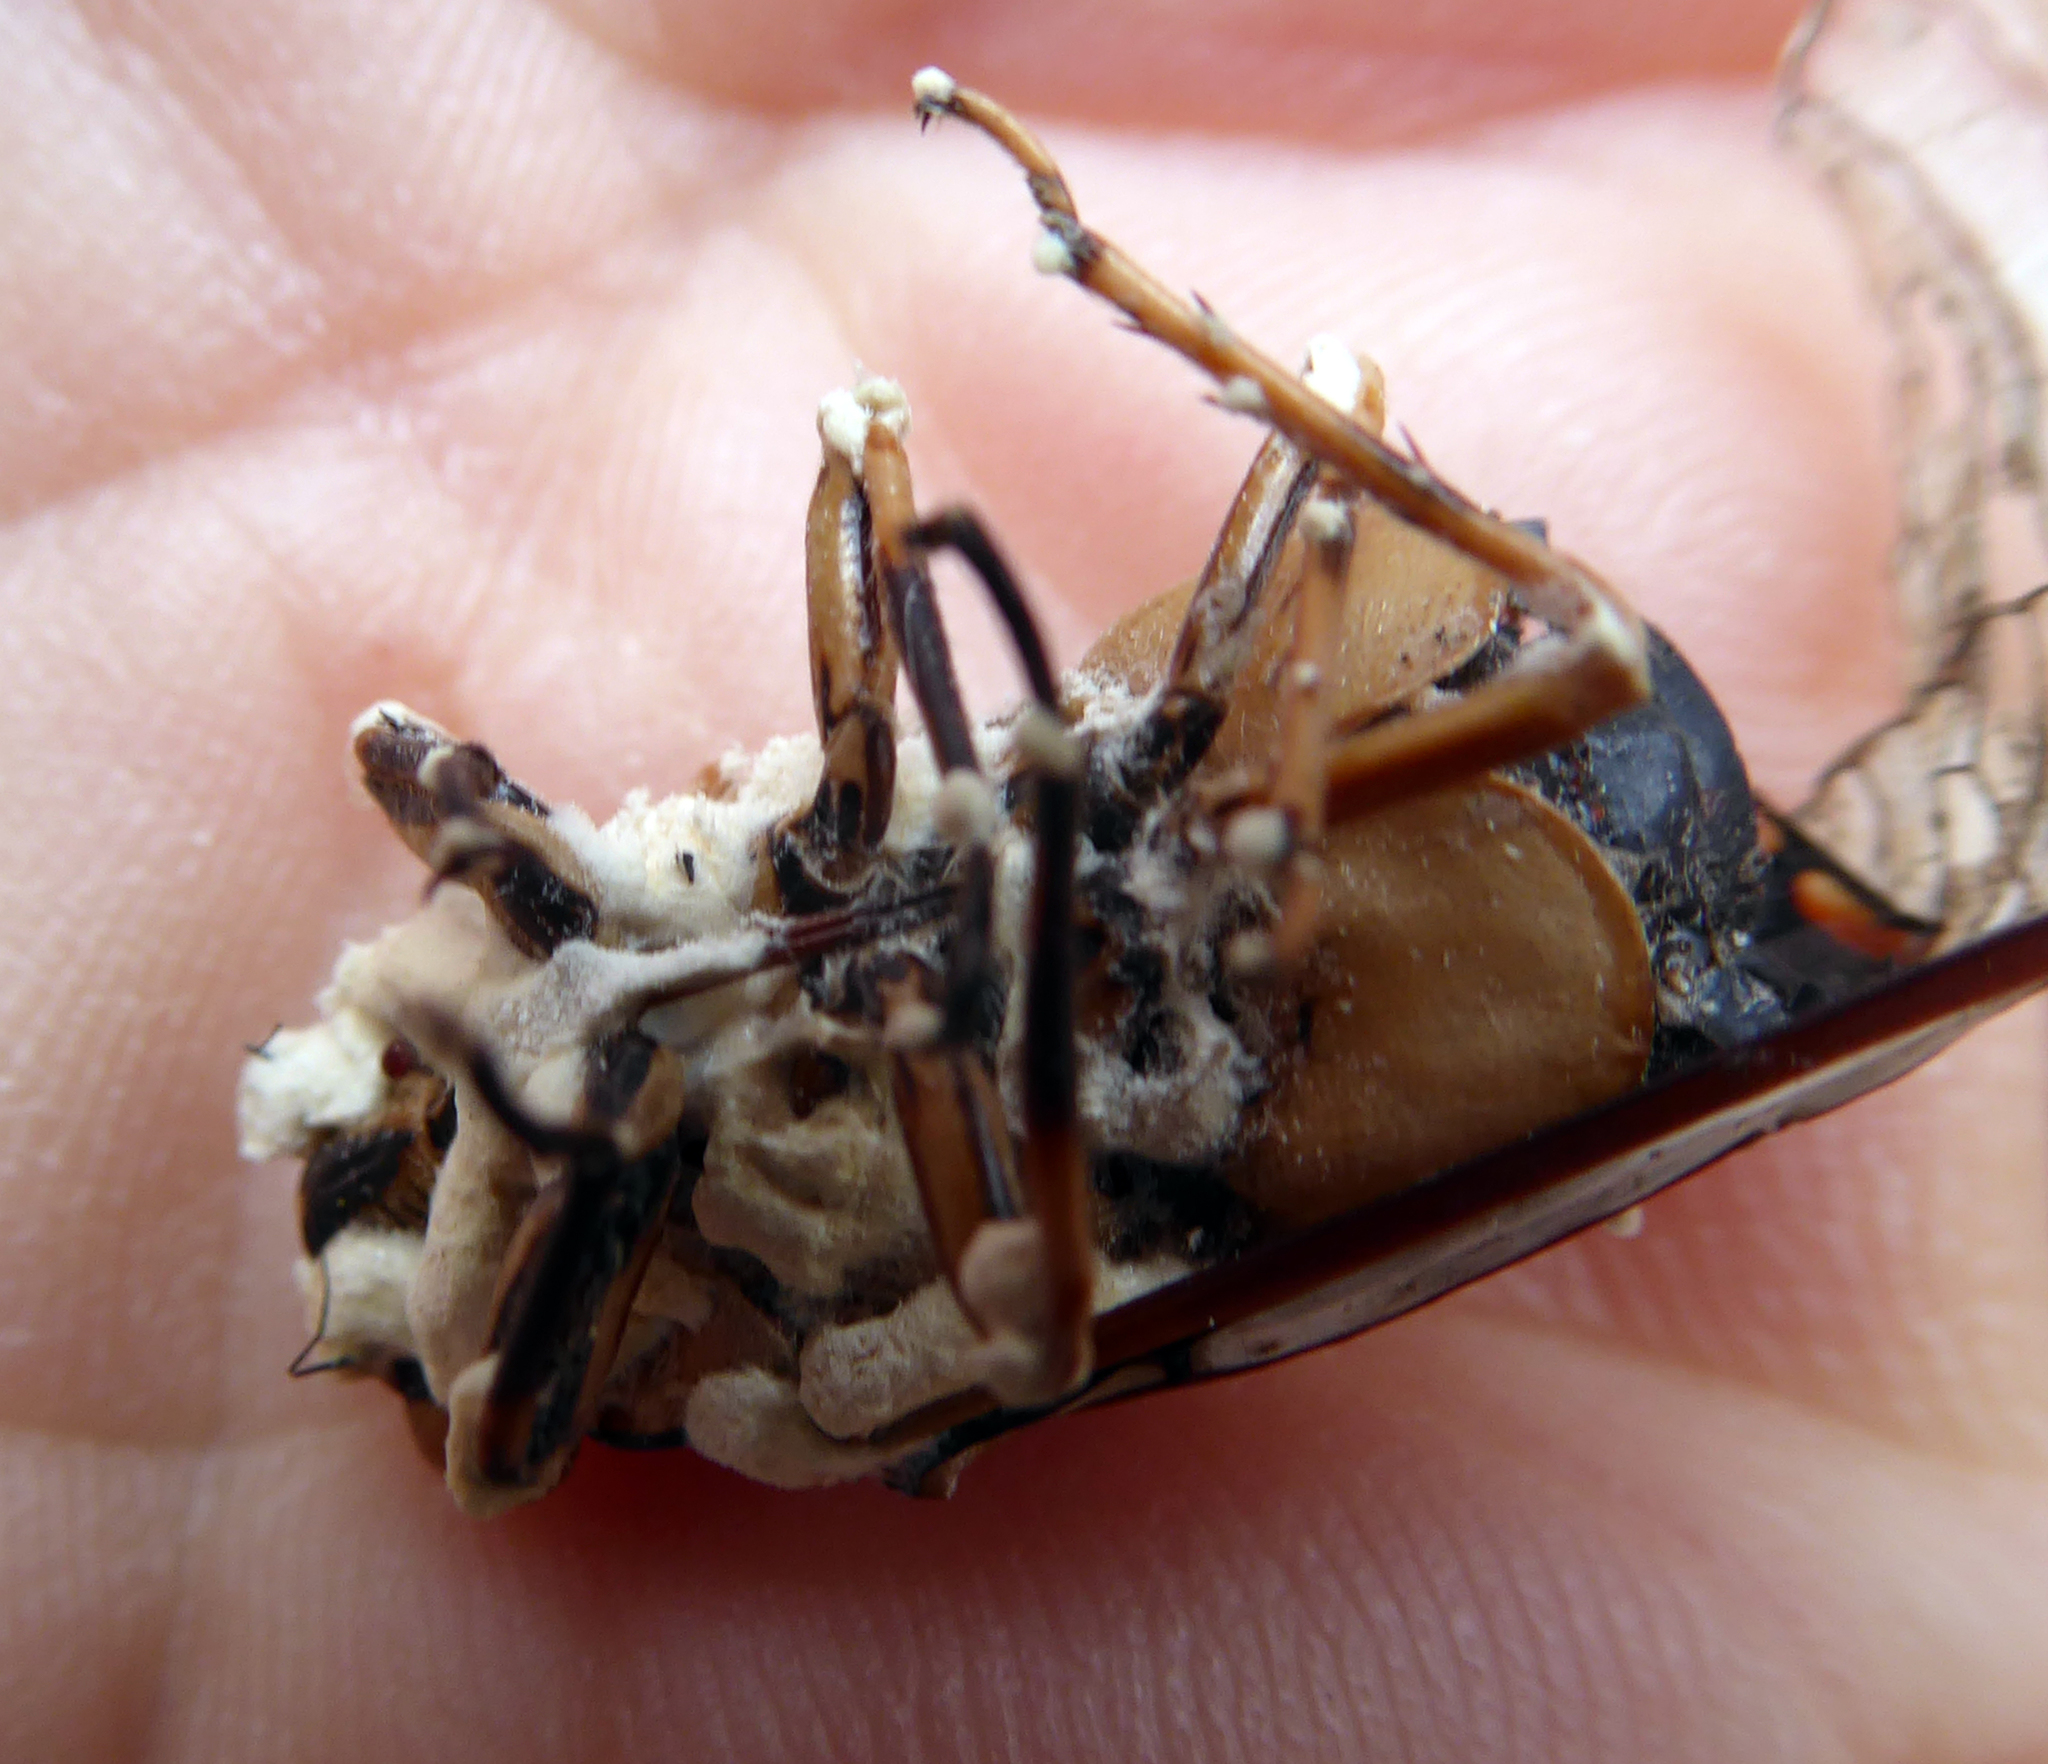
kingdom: Fungi
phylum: Ascomycota
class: Sordariomycetes
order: Hypocreales
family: Cordycipitaceae
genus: Beauveria
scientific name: Beauveria bassiana
